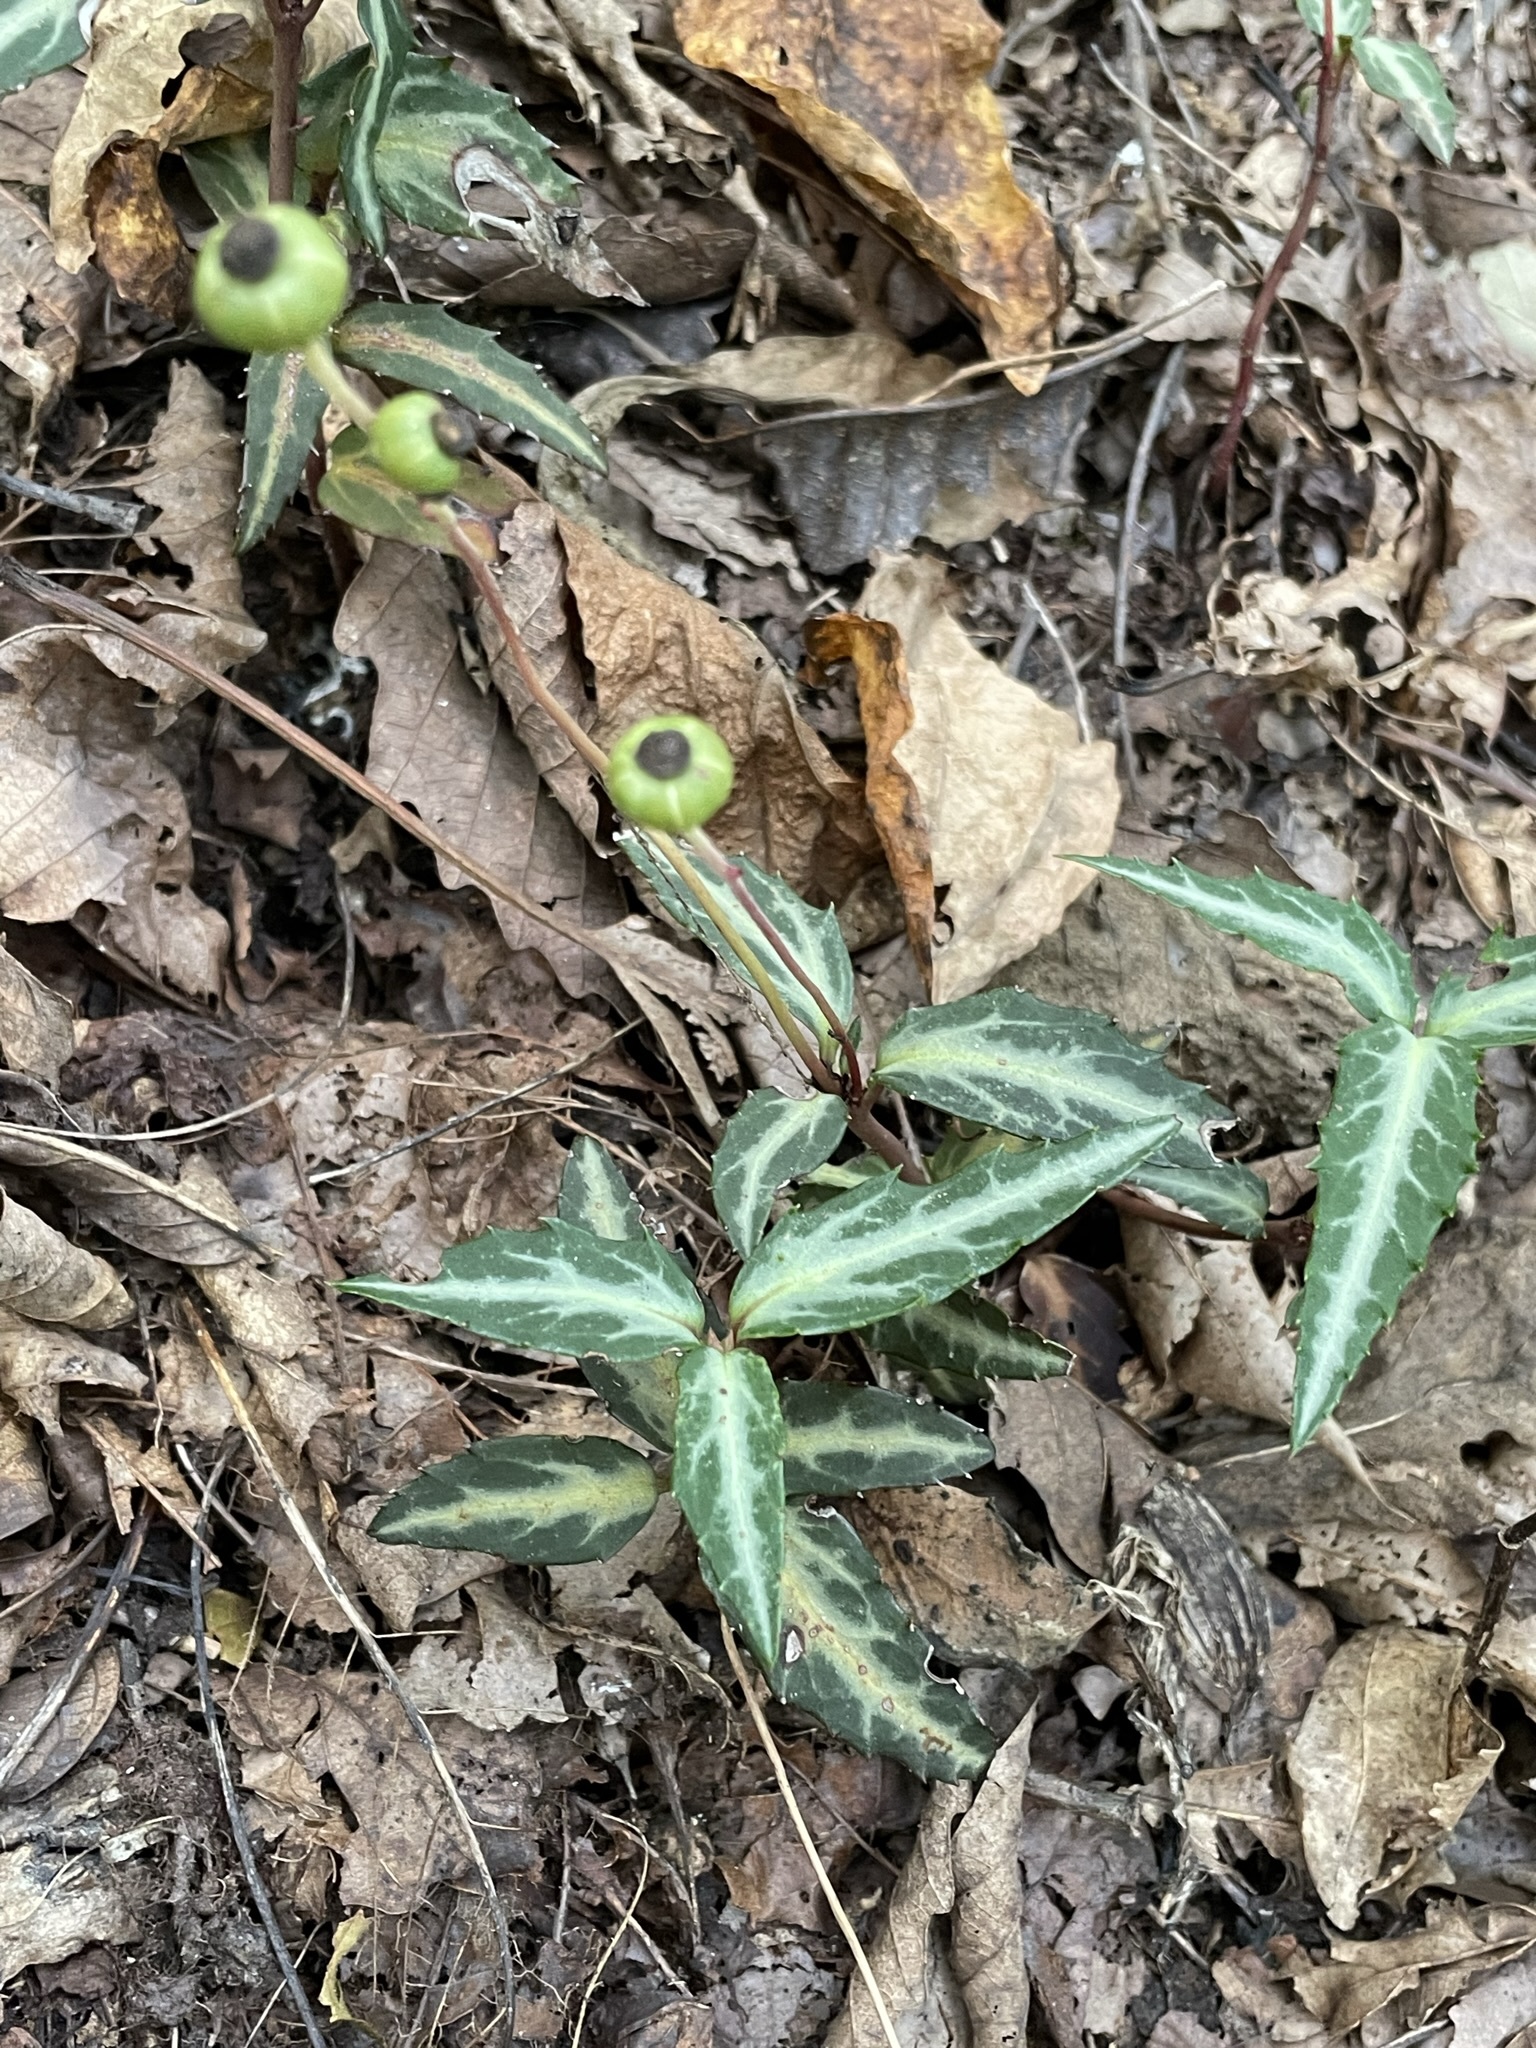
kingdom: Plantae
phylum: Tracheophyta
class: Magnoliopsida
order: Ericales
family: Ericaceae
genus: Chimaphila
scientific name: Chimaphila maculata
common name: Spotted pipsissewa
